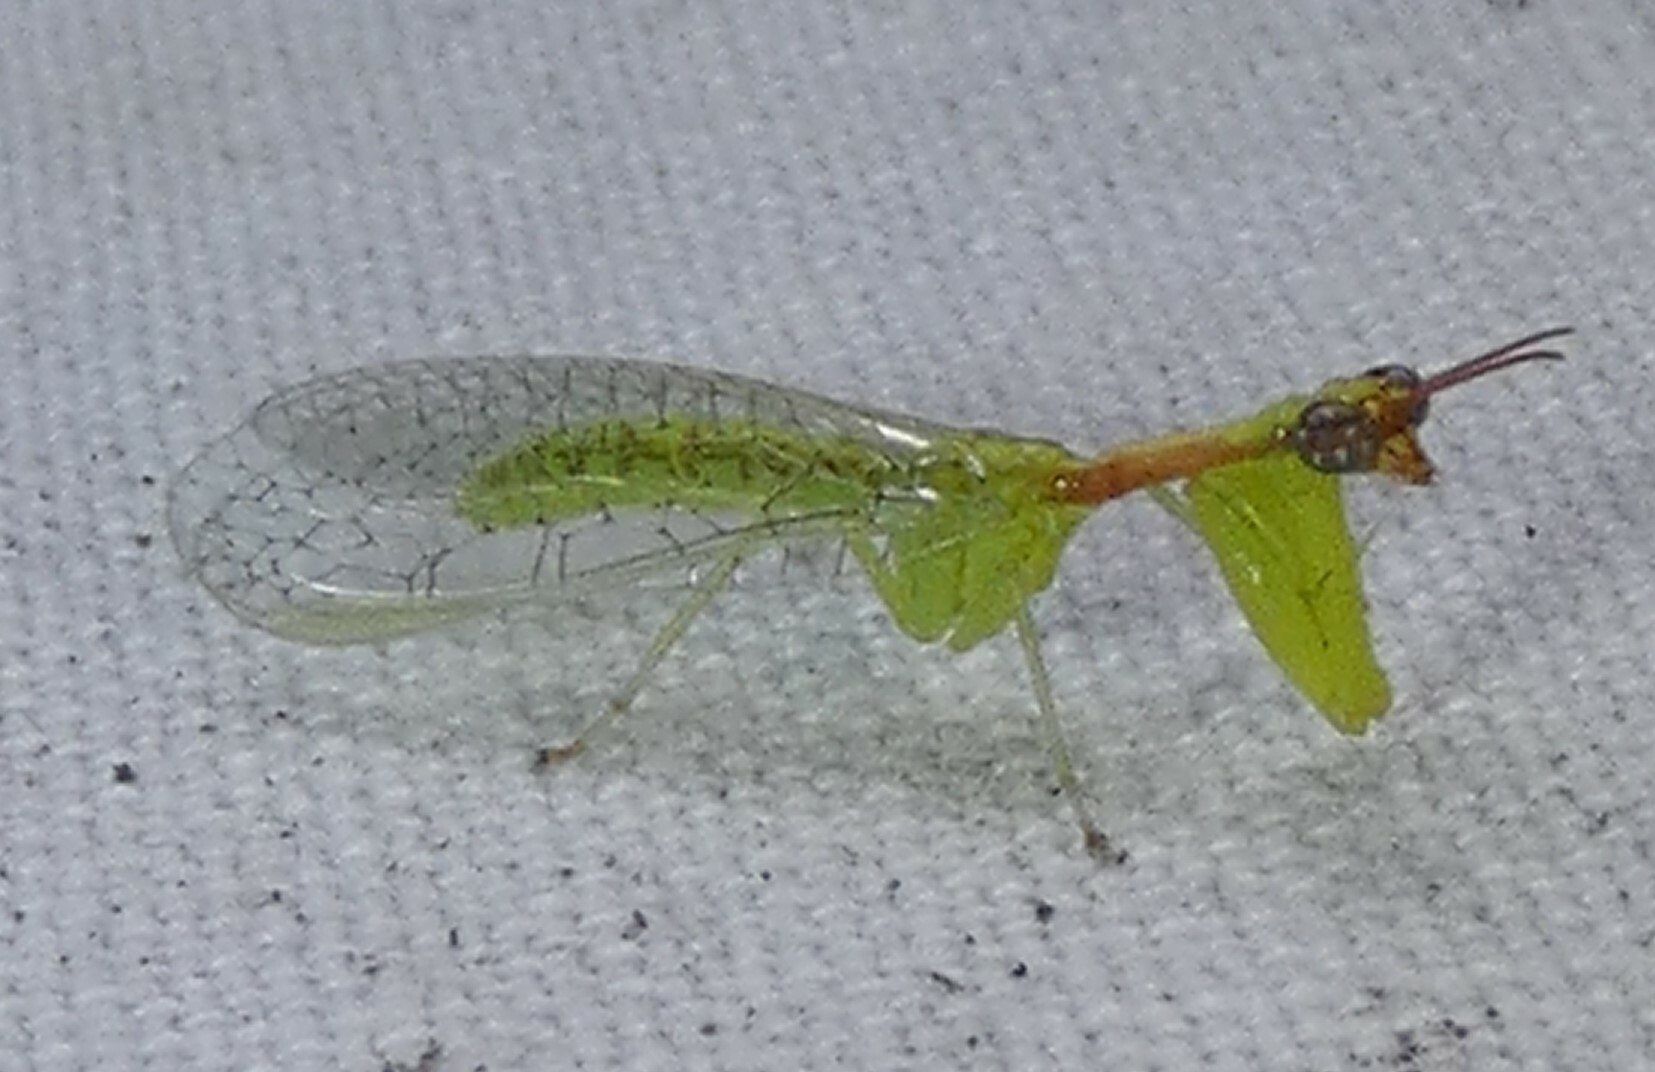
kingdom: Animalia
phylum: Arthropoda
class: Insecta
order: Neuroptera
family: Mantispidae
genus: Zeugomantispa
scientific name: Zeugomantispa minuta
